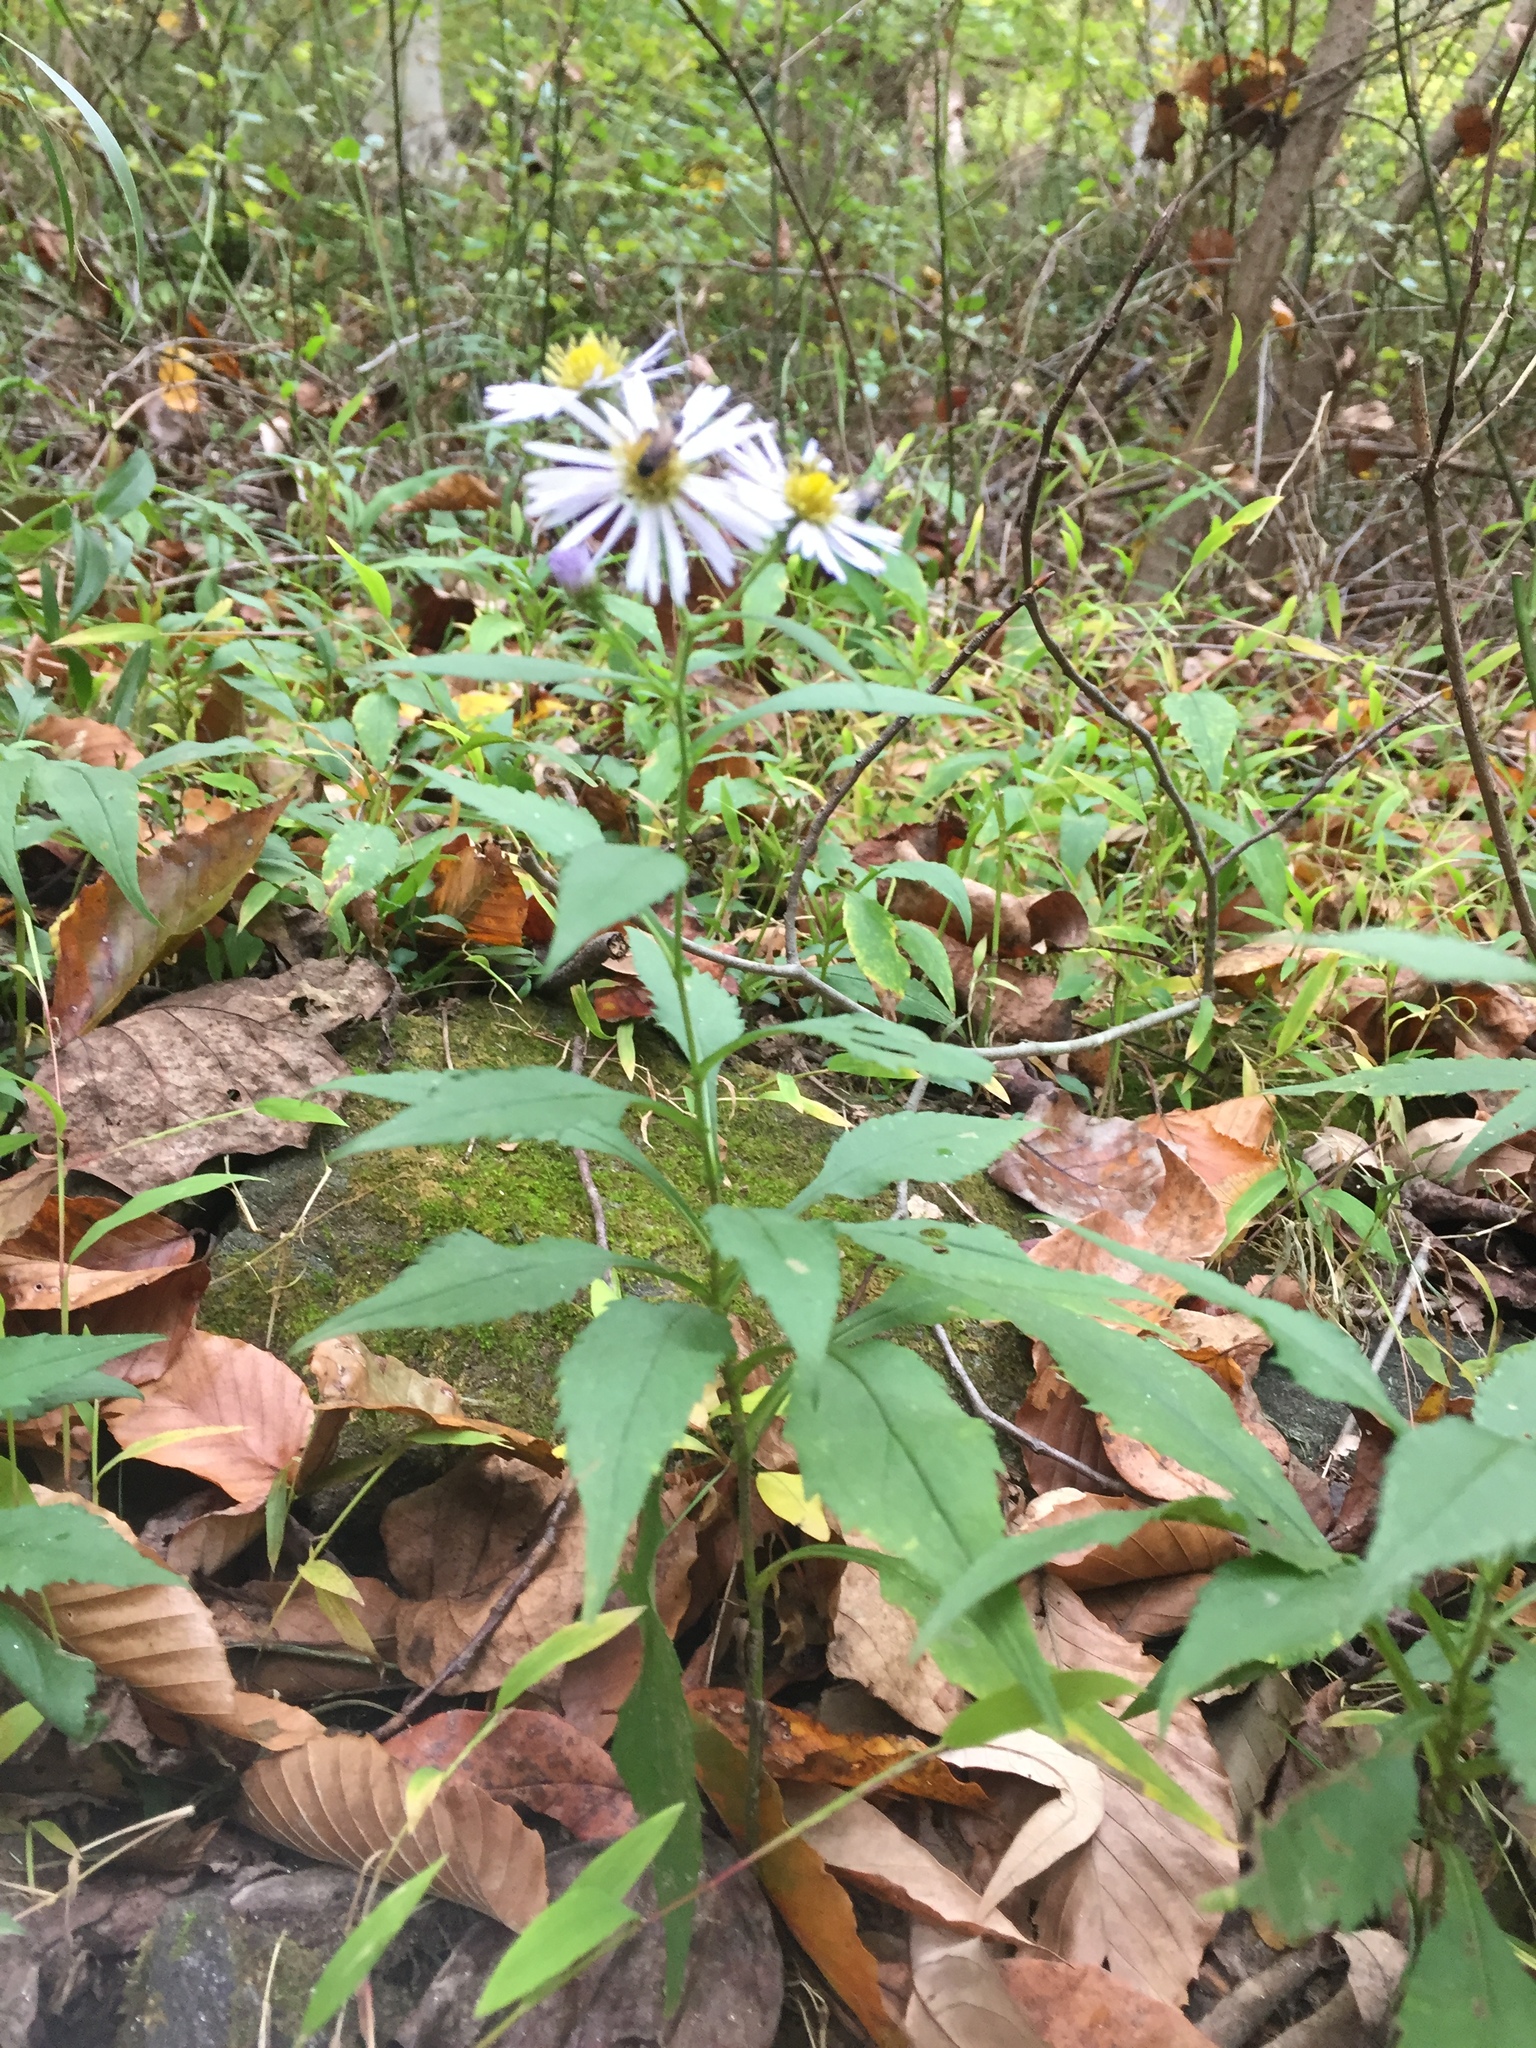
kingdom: Plantae
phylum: Tracheophyta
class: Magnoliopsida
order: Asterales
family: Asteraceae
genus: Symphyotrichum
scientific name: Symphyotrichum prenanthoides
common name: Crooked-stem aster
